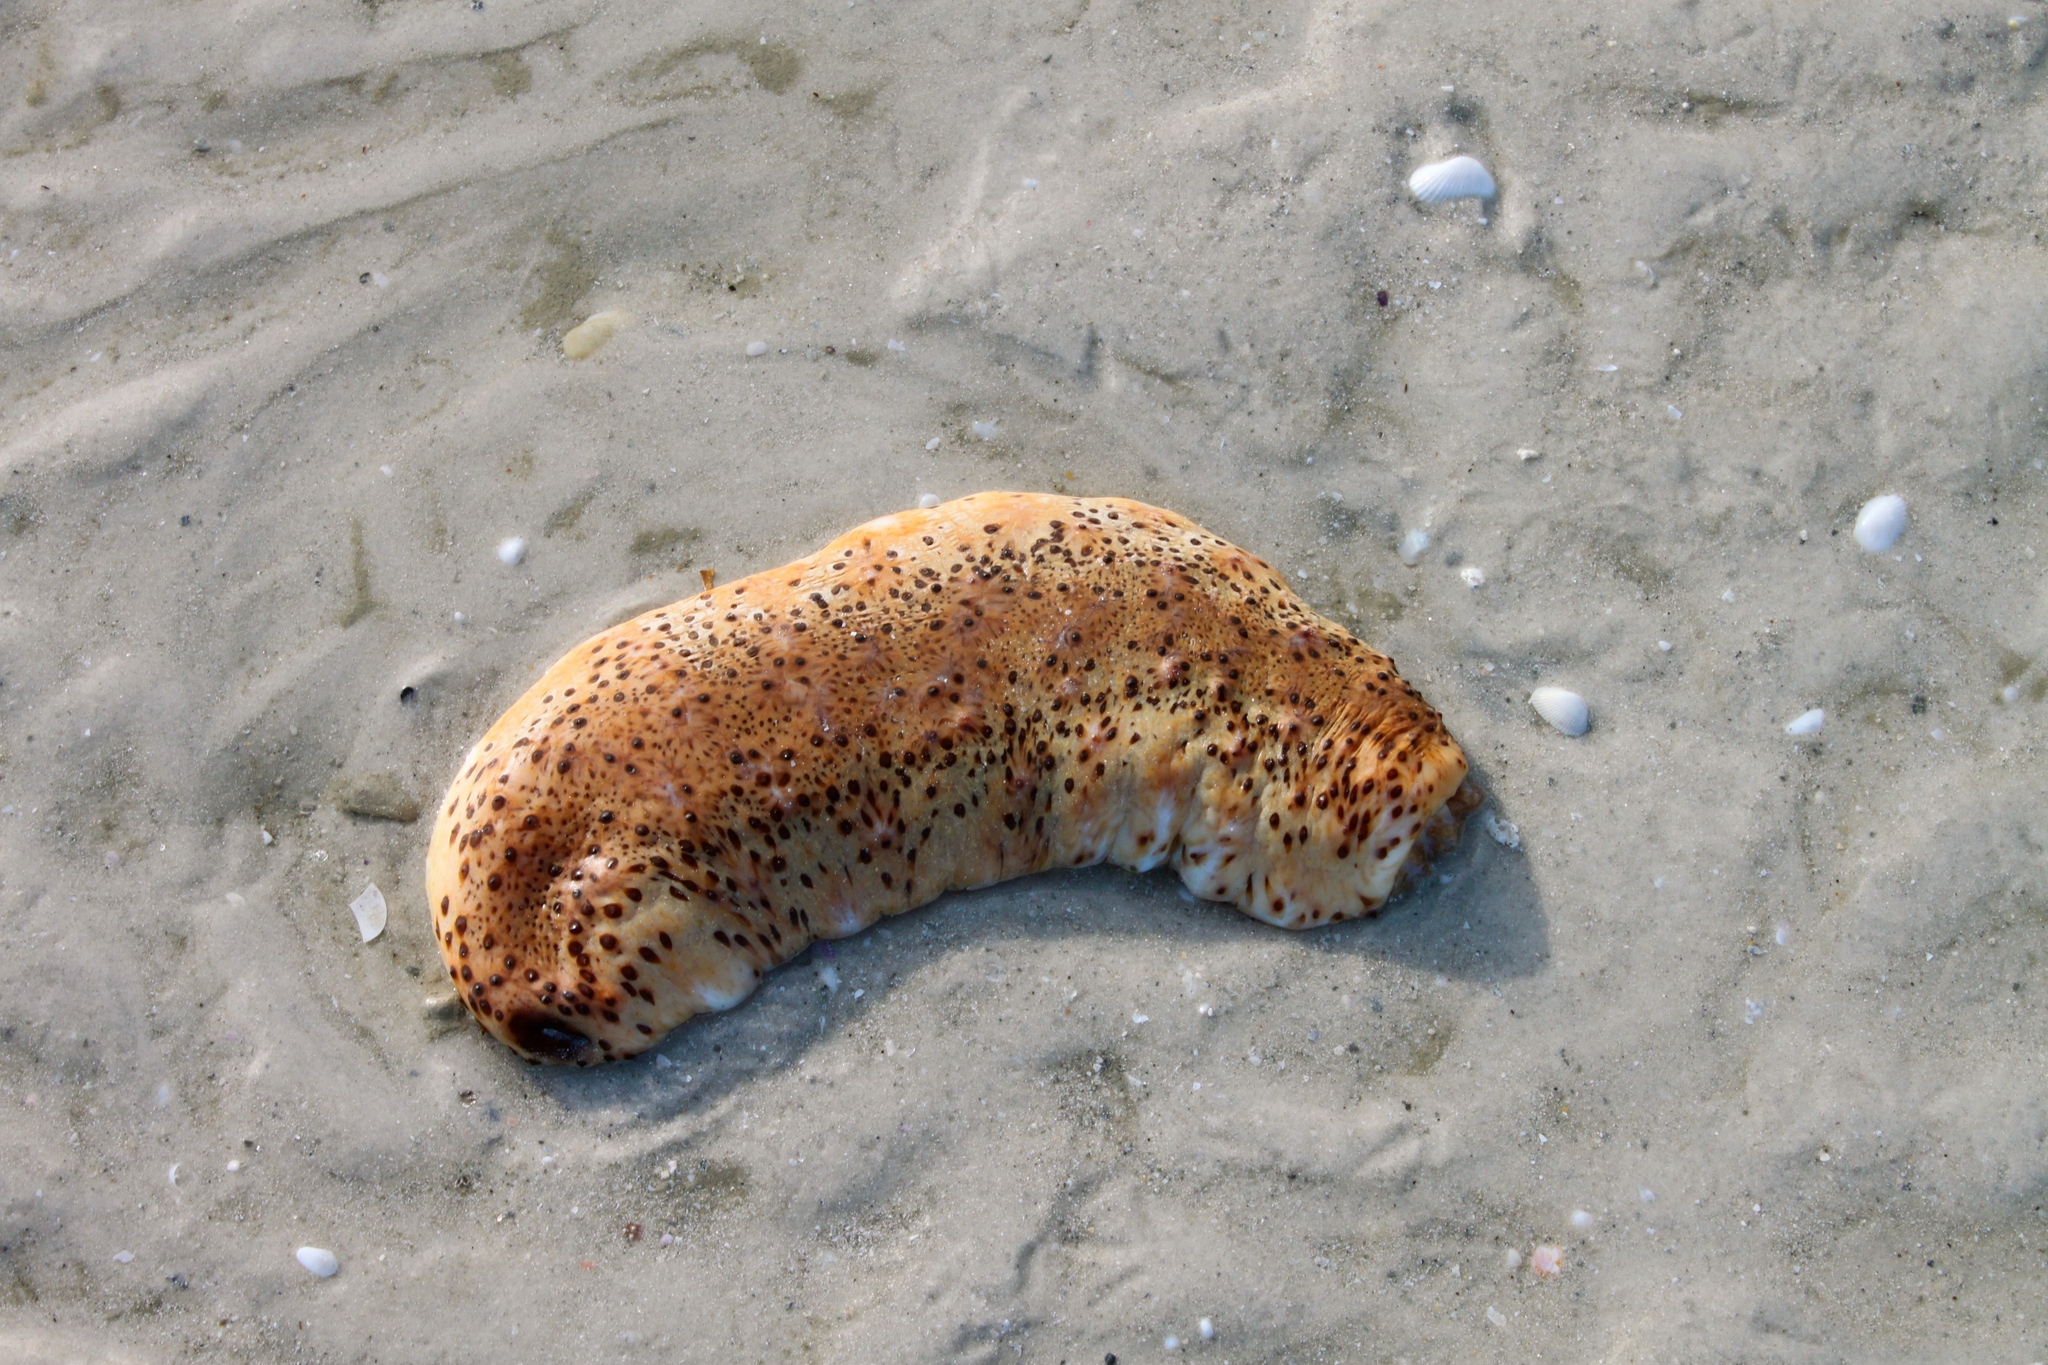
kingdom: Animalia
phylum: Echinodermata
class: Holothuroidea
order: Synallactida
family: Stichopodidae
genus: Isostichopus
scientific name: Isostichopus badionotus
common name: Chocolate chip cucumber
